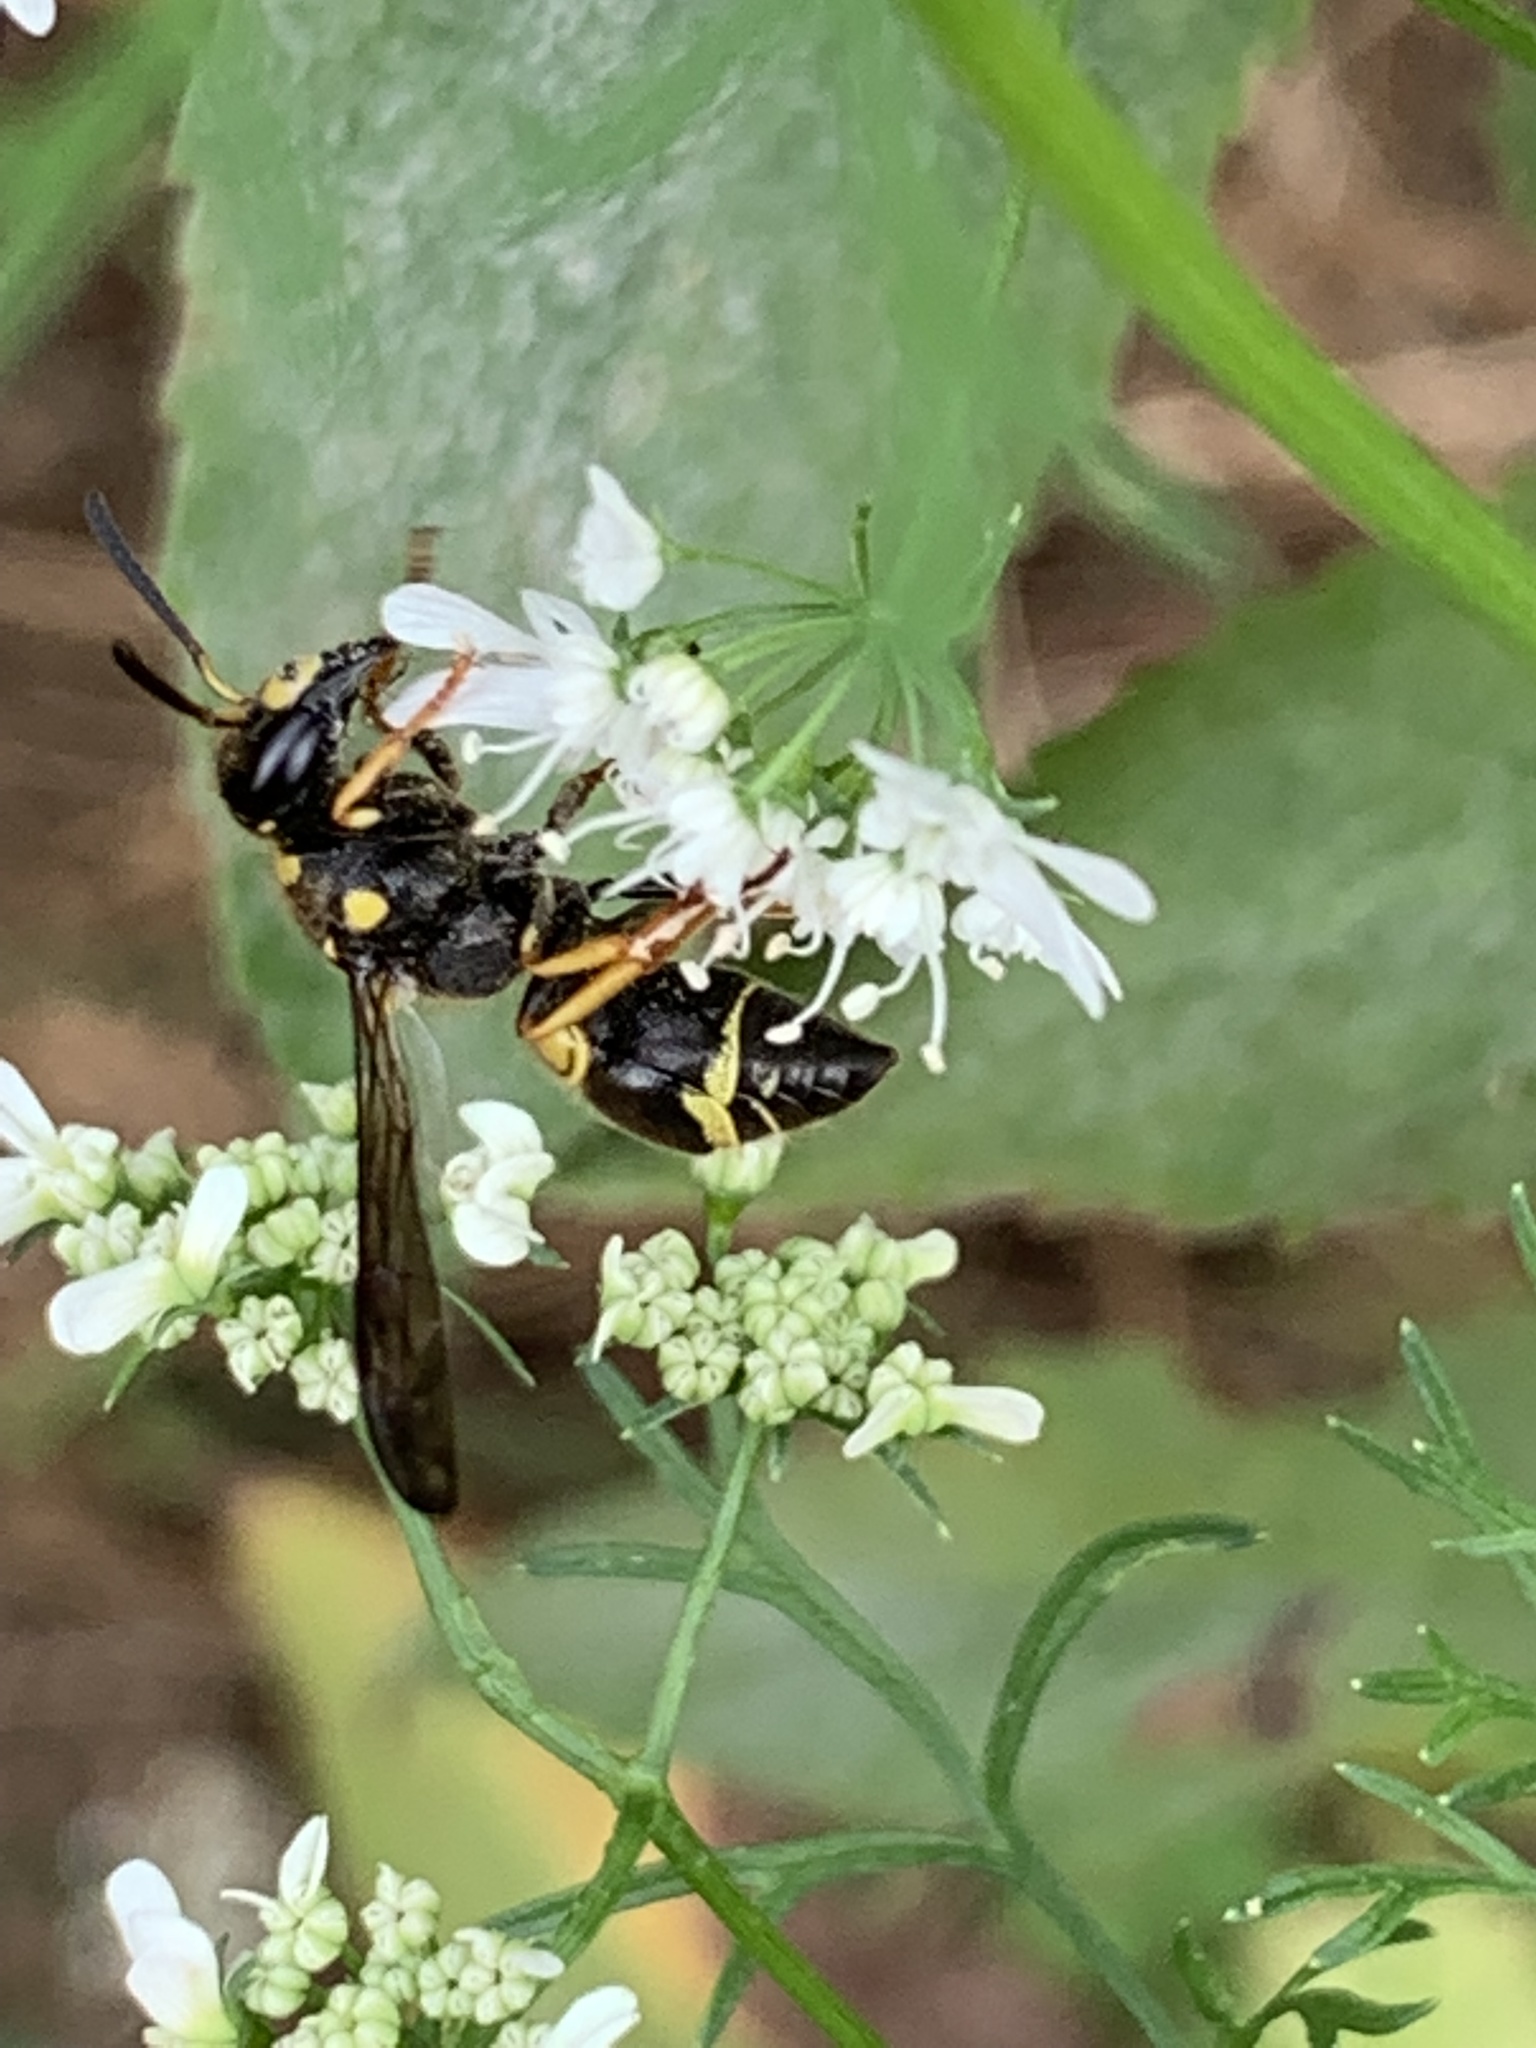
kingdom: Animalia
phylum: Arthropoda
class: Insecta
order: Hymenoptera
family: Vespidae
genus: Ancistrocerus
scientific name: Ancistrocerus campestris
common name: Smiling mason wasp
